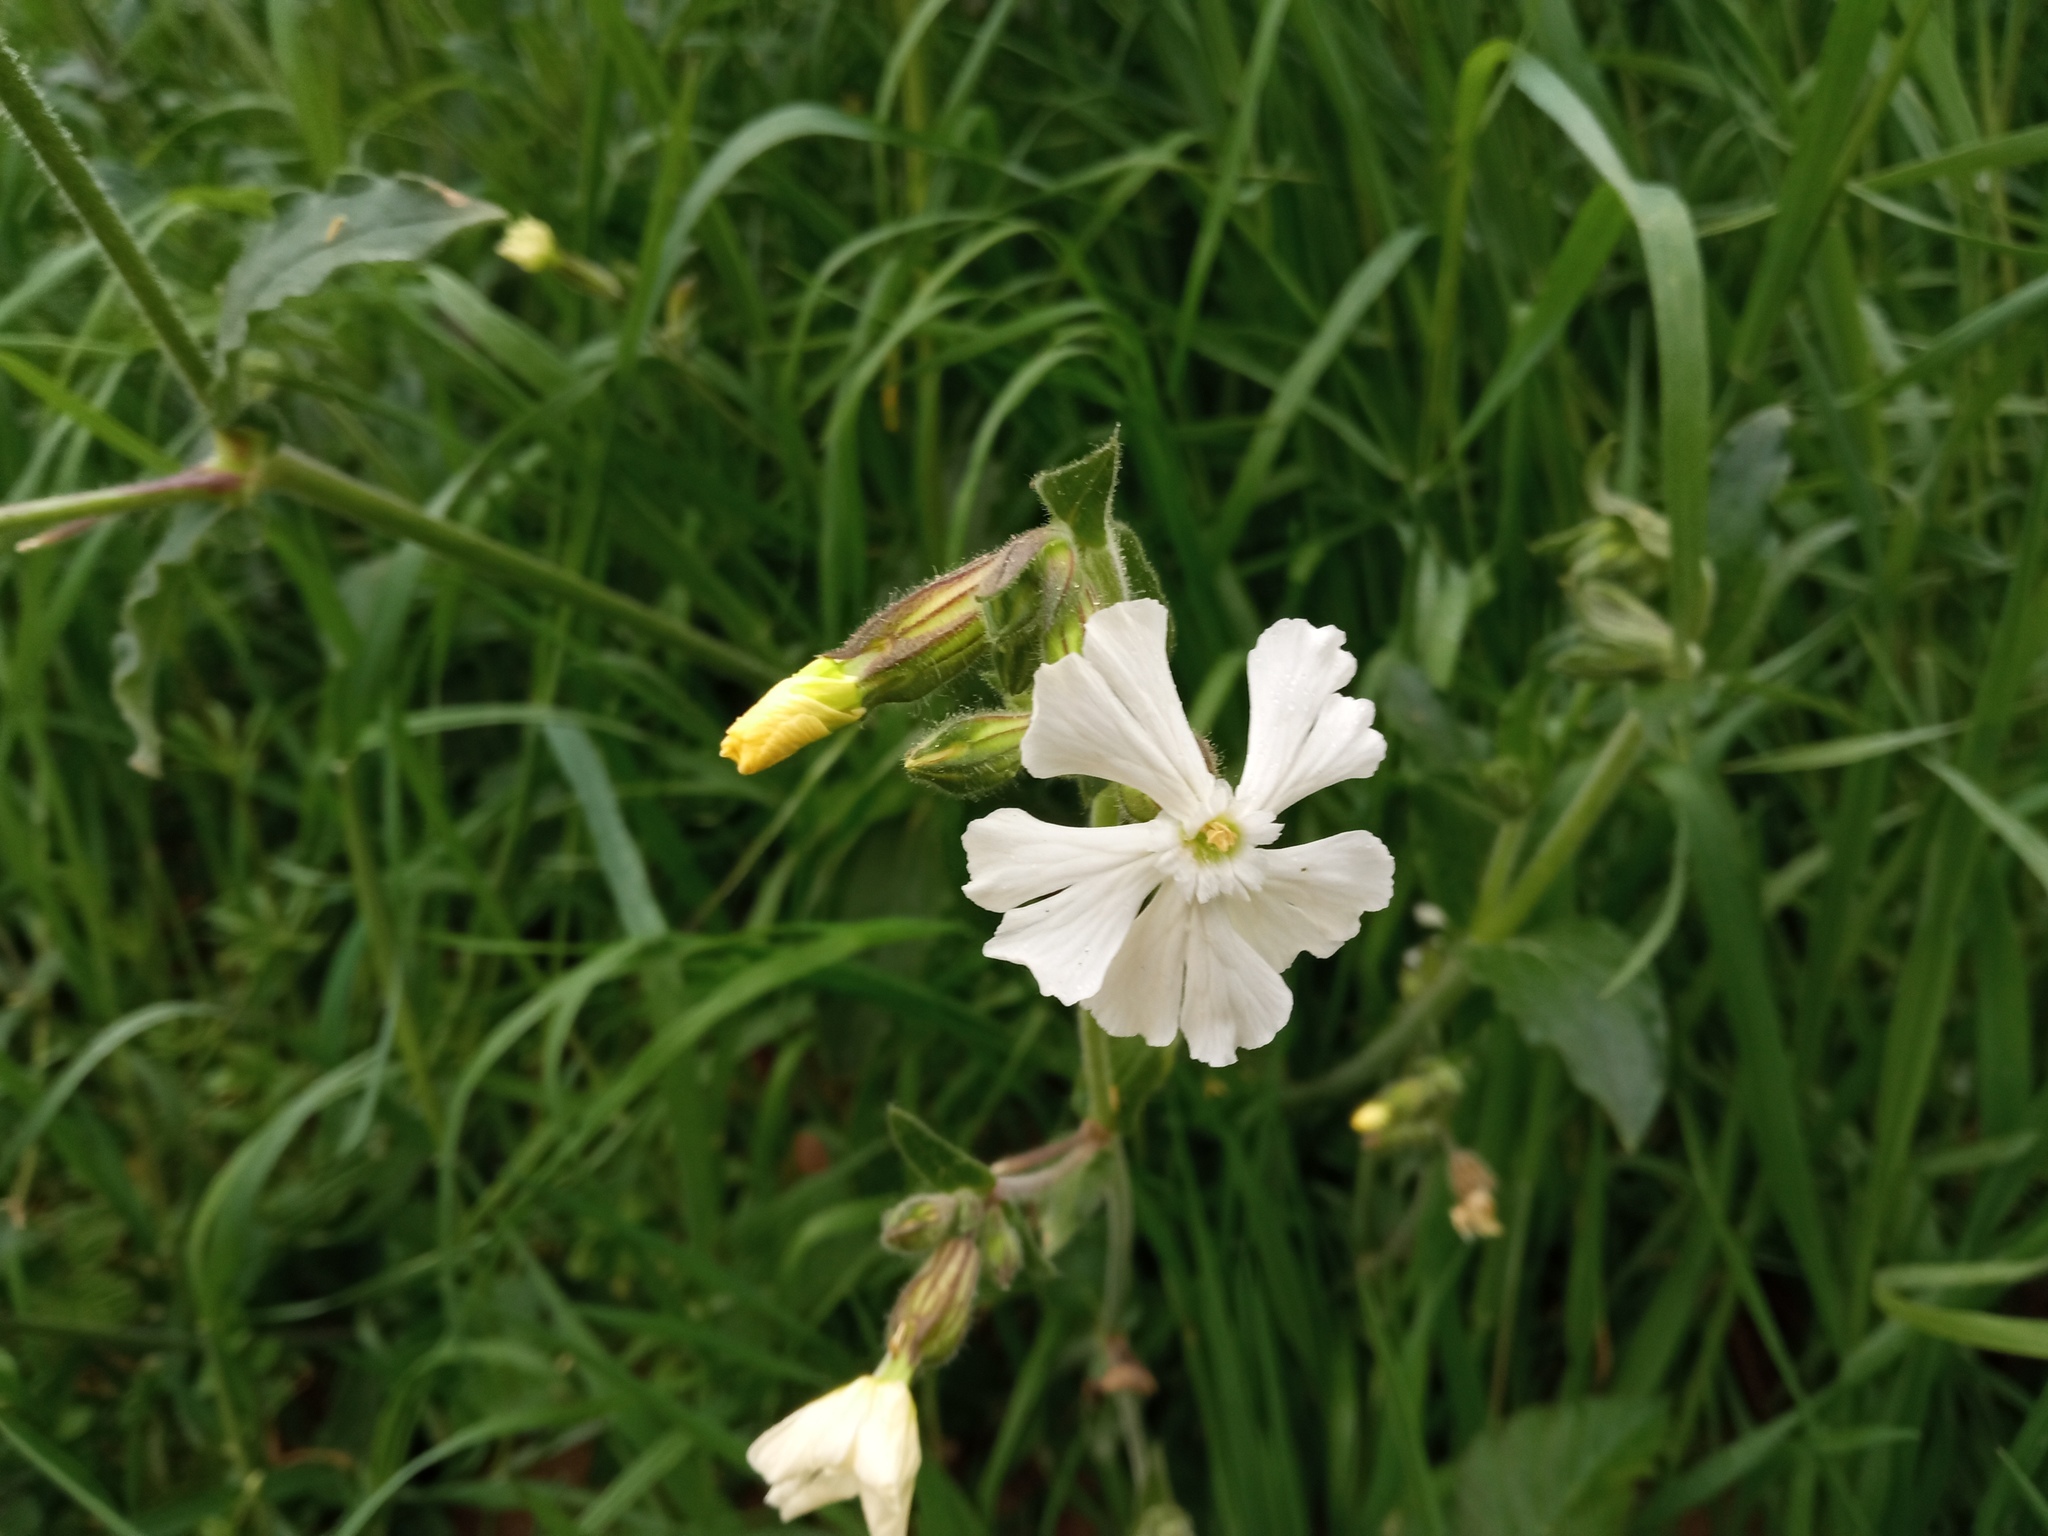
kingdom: Plantae
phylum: Tracheophyta
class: Magnoliopsida
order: Caryophyllales
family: Caryophyllaceae
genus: Silene
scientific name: Silene latifolia
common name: White campion
